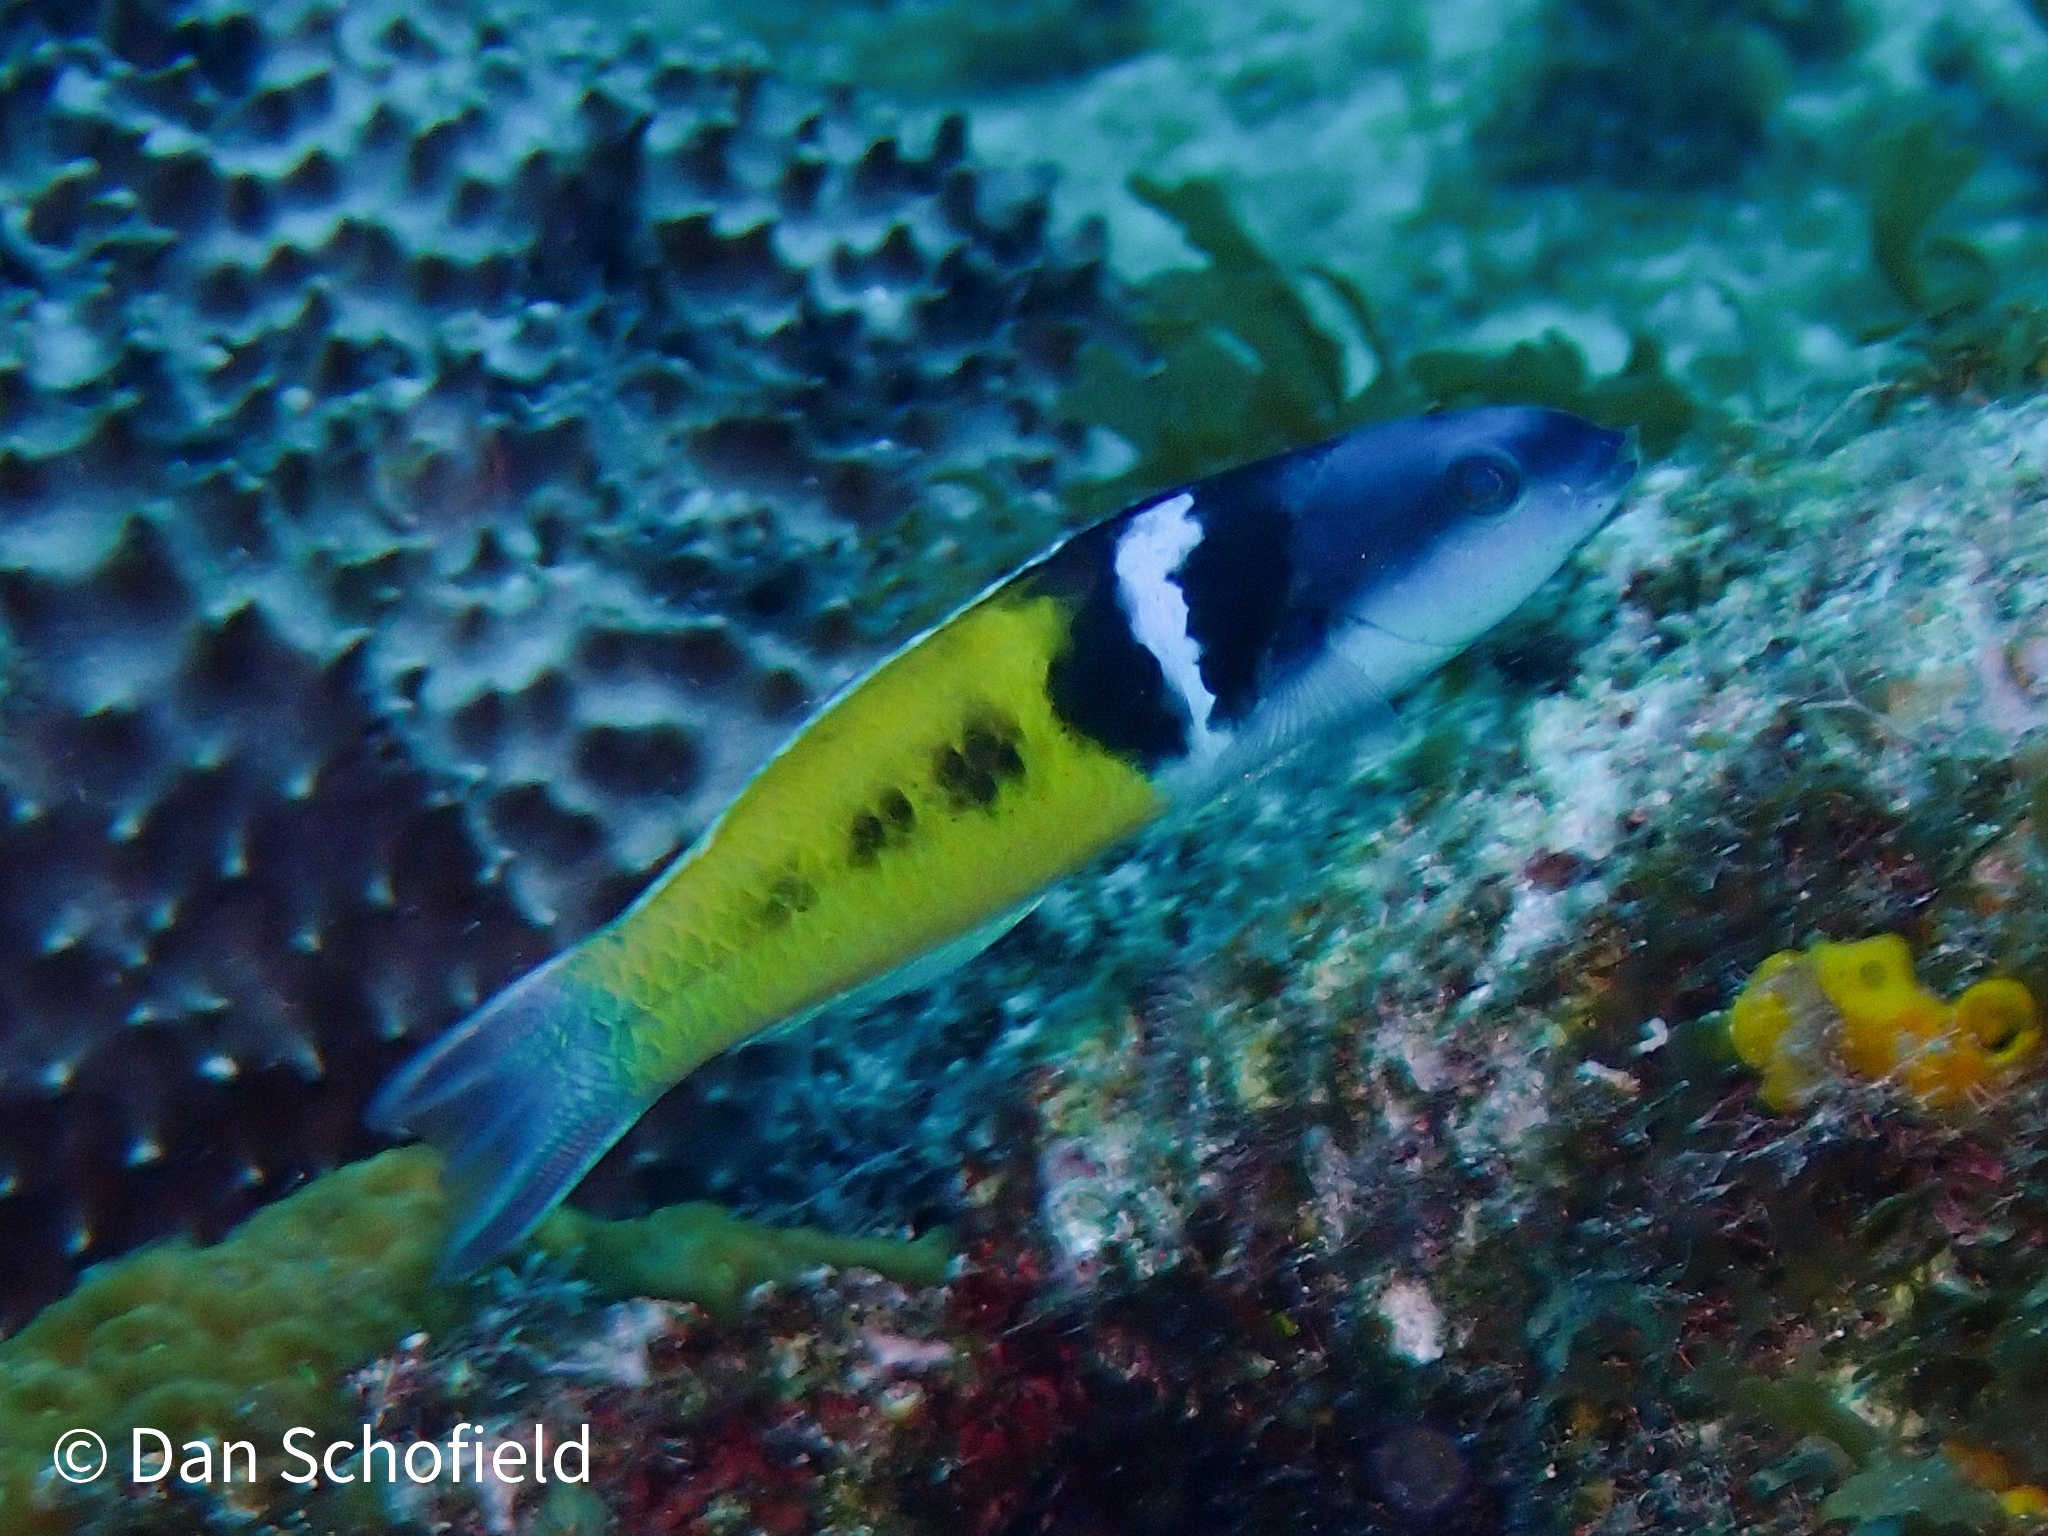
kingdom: Animalia
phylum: Chordata
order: Perciformes
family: Labridae
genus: Thalassoma
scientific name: Thalassoma bifasciatum
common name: Bluehead wrasse
